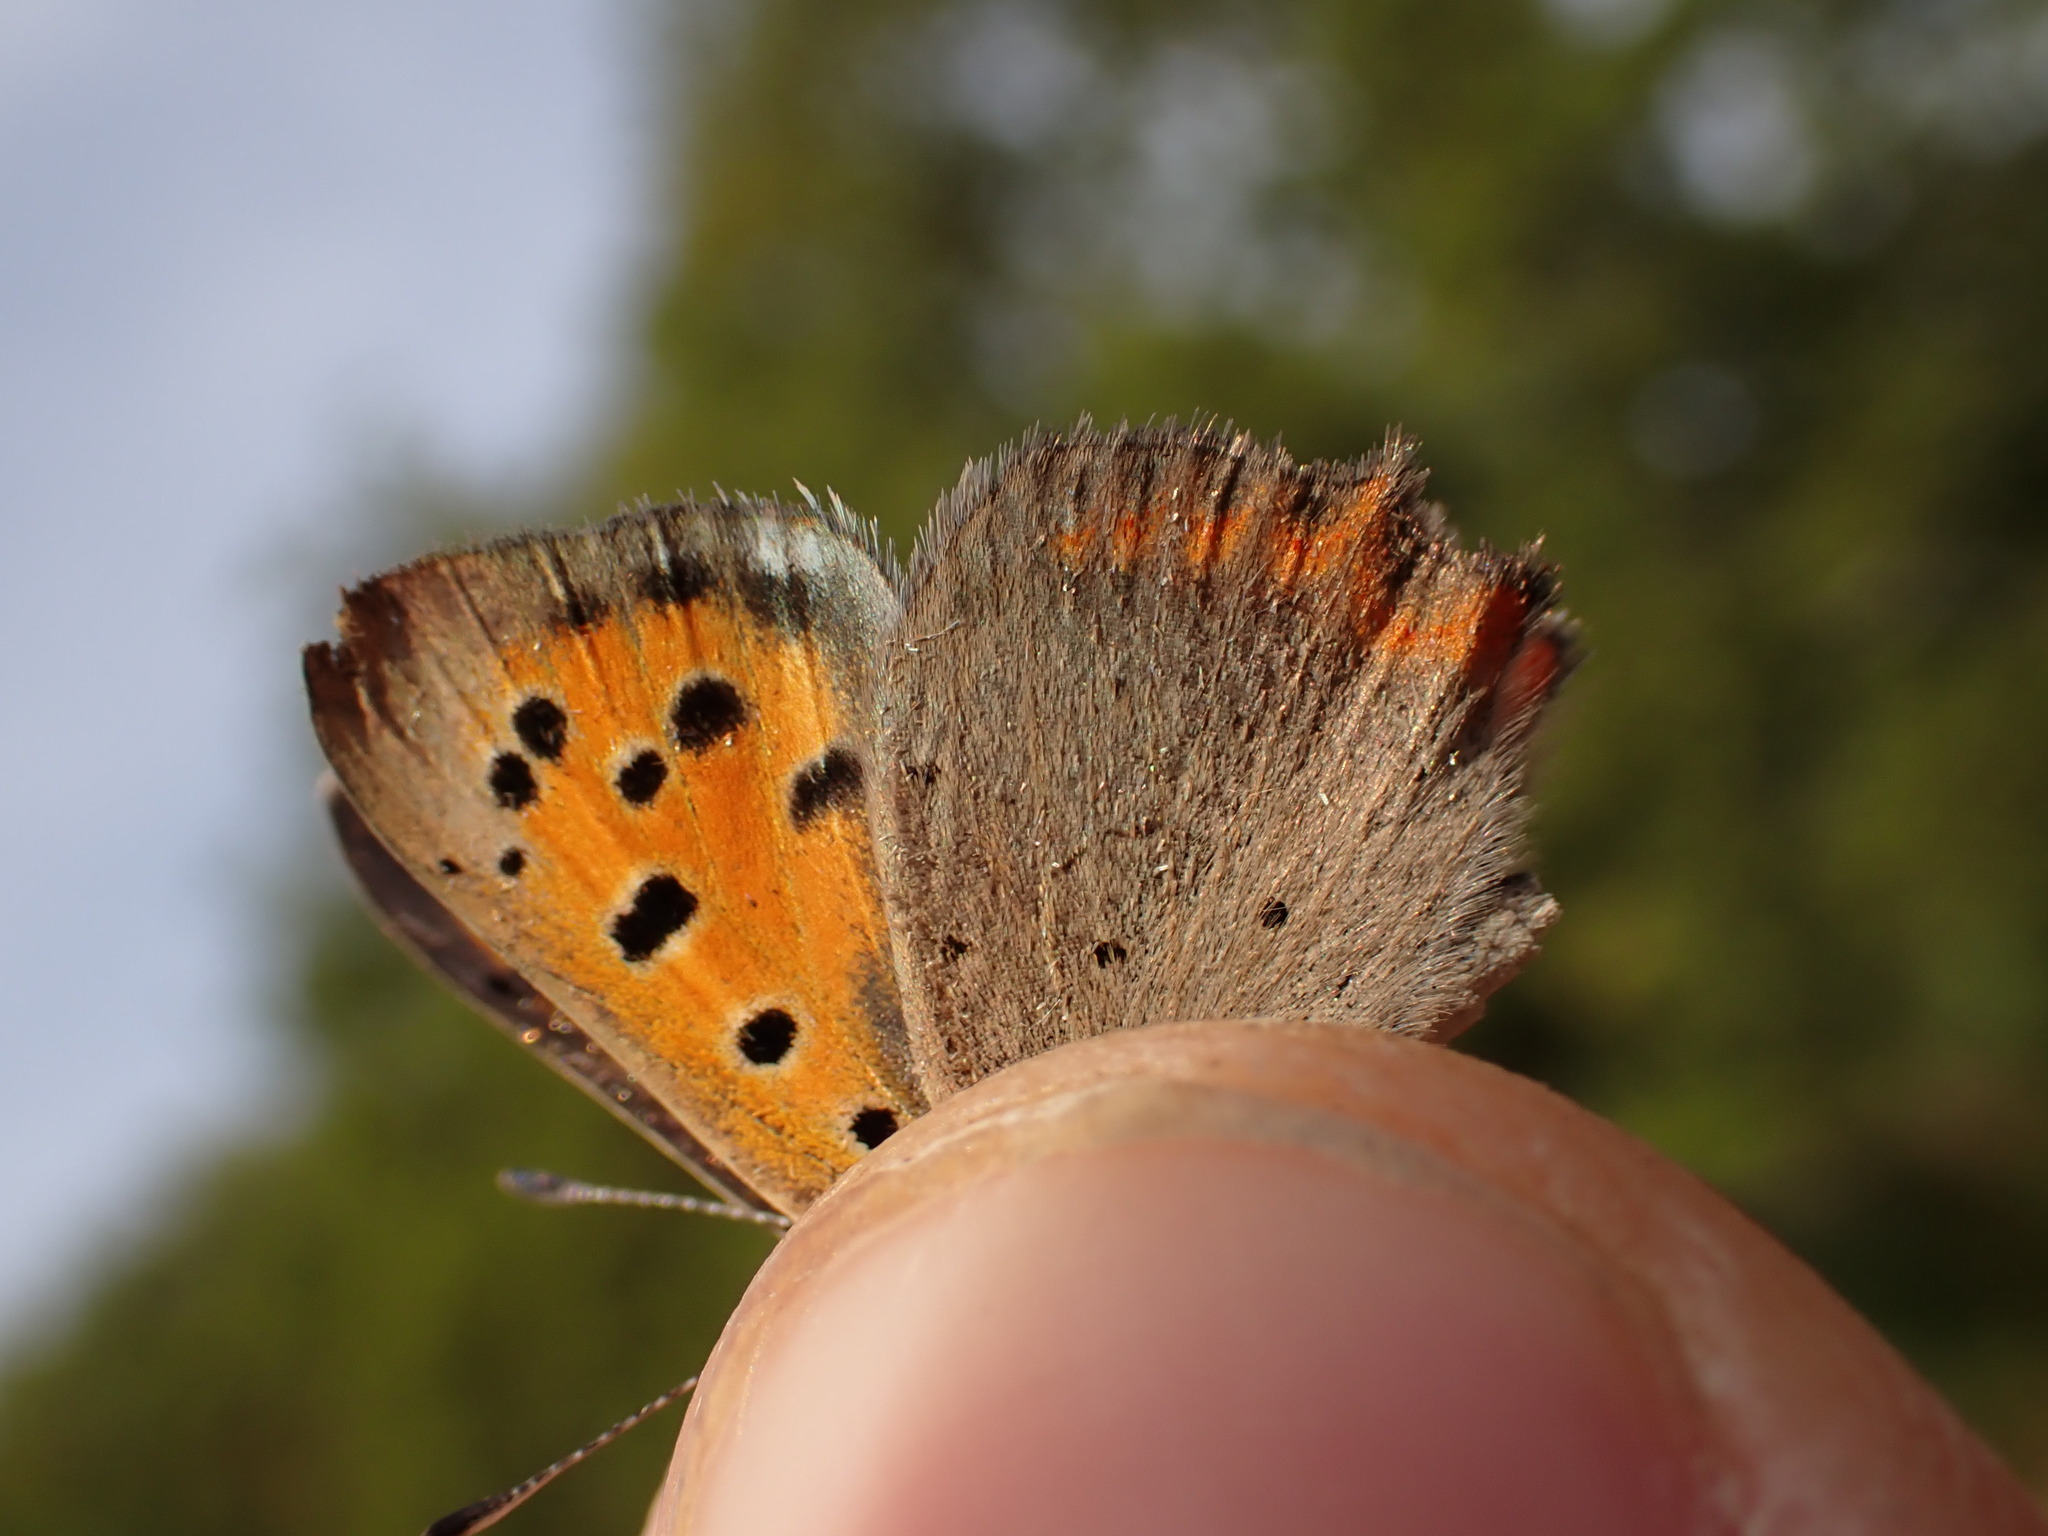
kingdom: Animalia
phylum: Arthropoda
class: Insecta
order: Lepidoptera
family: Lycaenidae
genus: Lycaena
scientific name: Lycaena phlaeas
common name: Small copper
